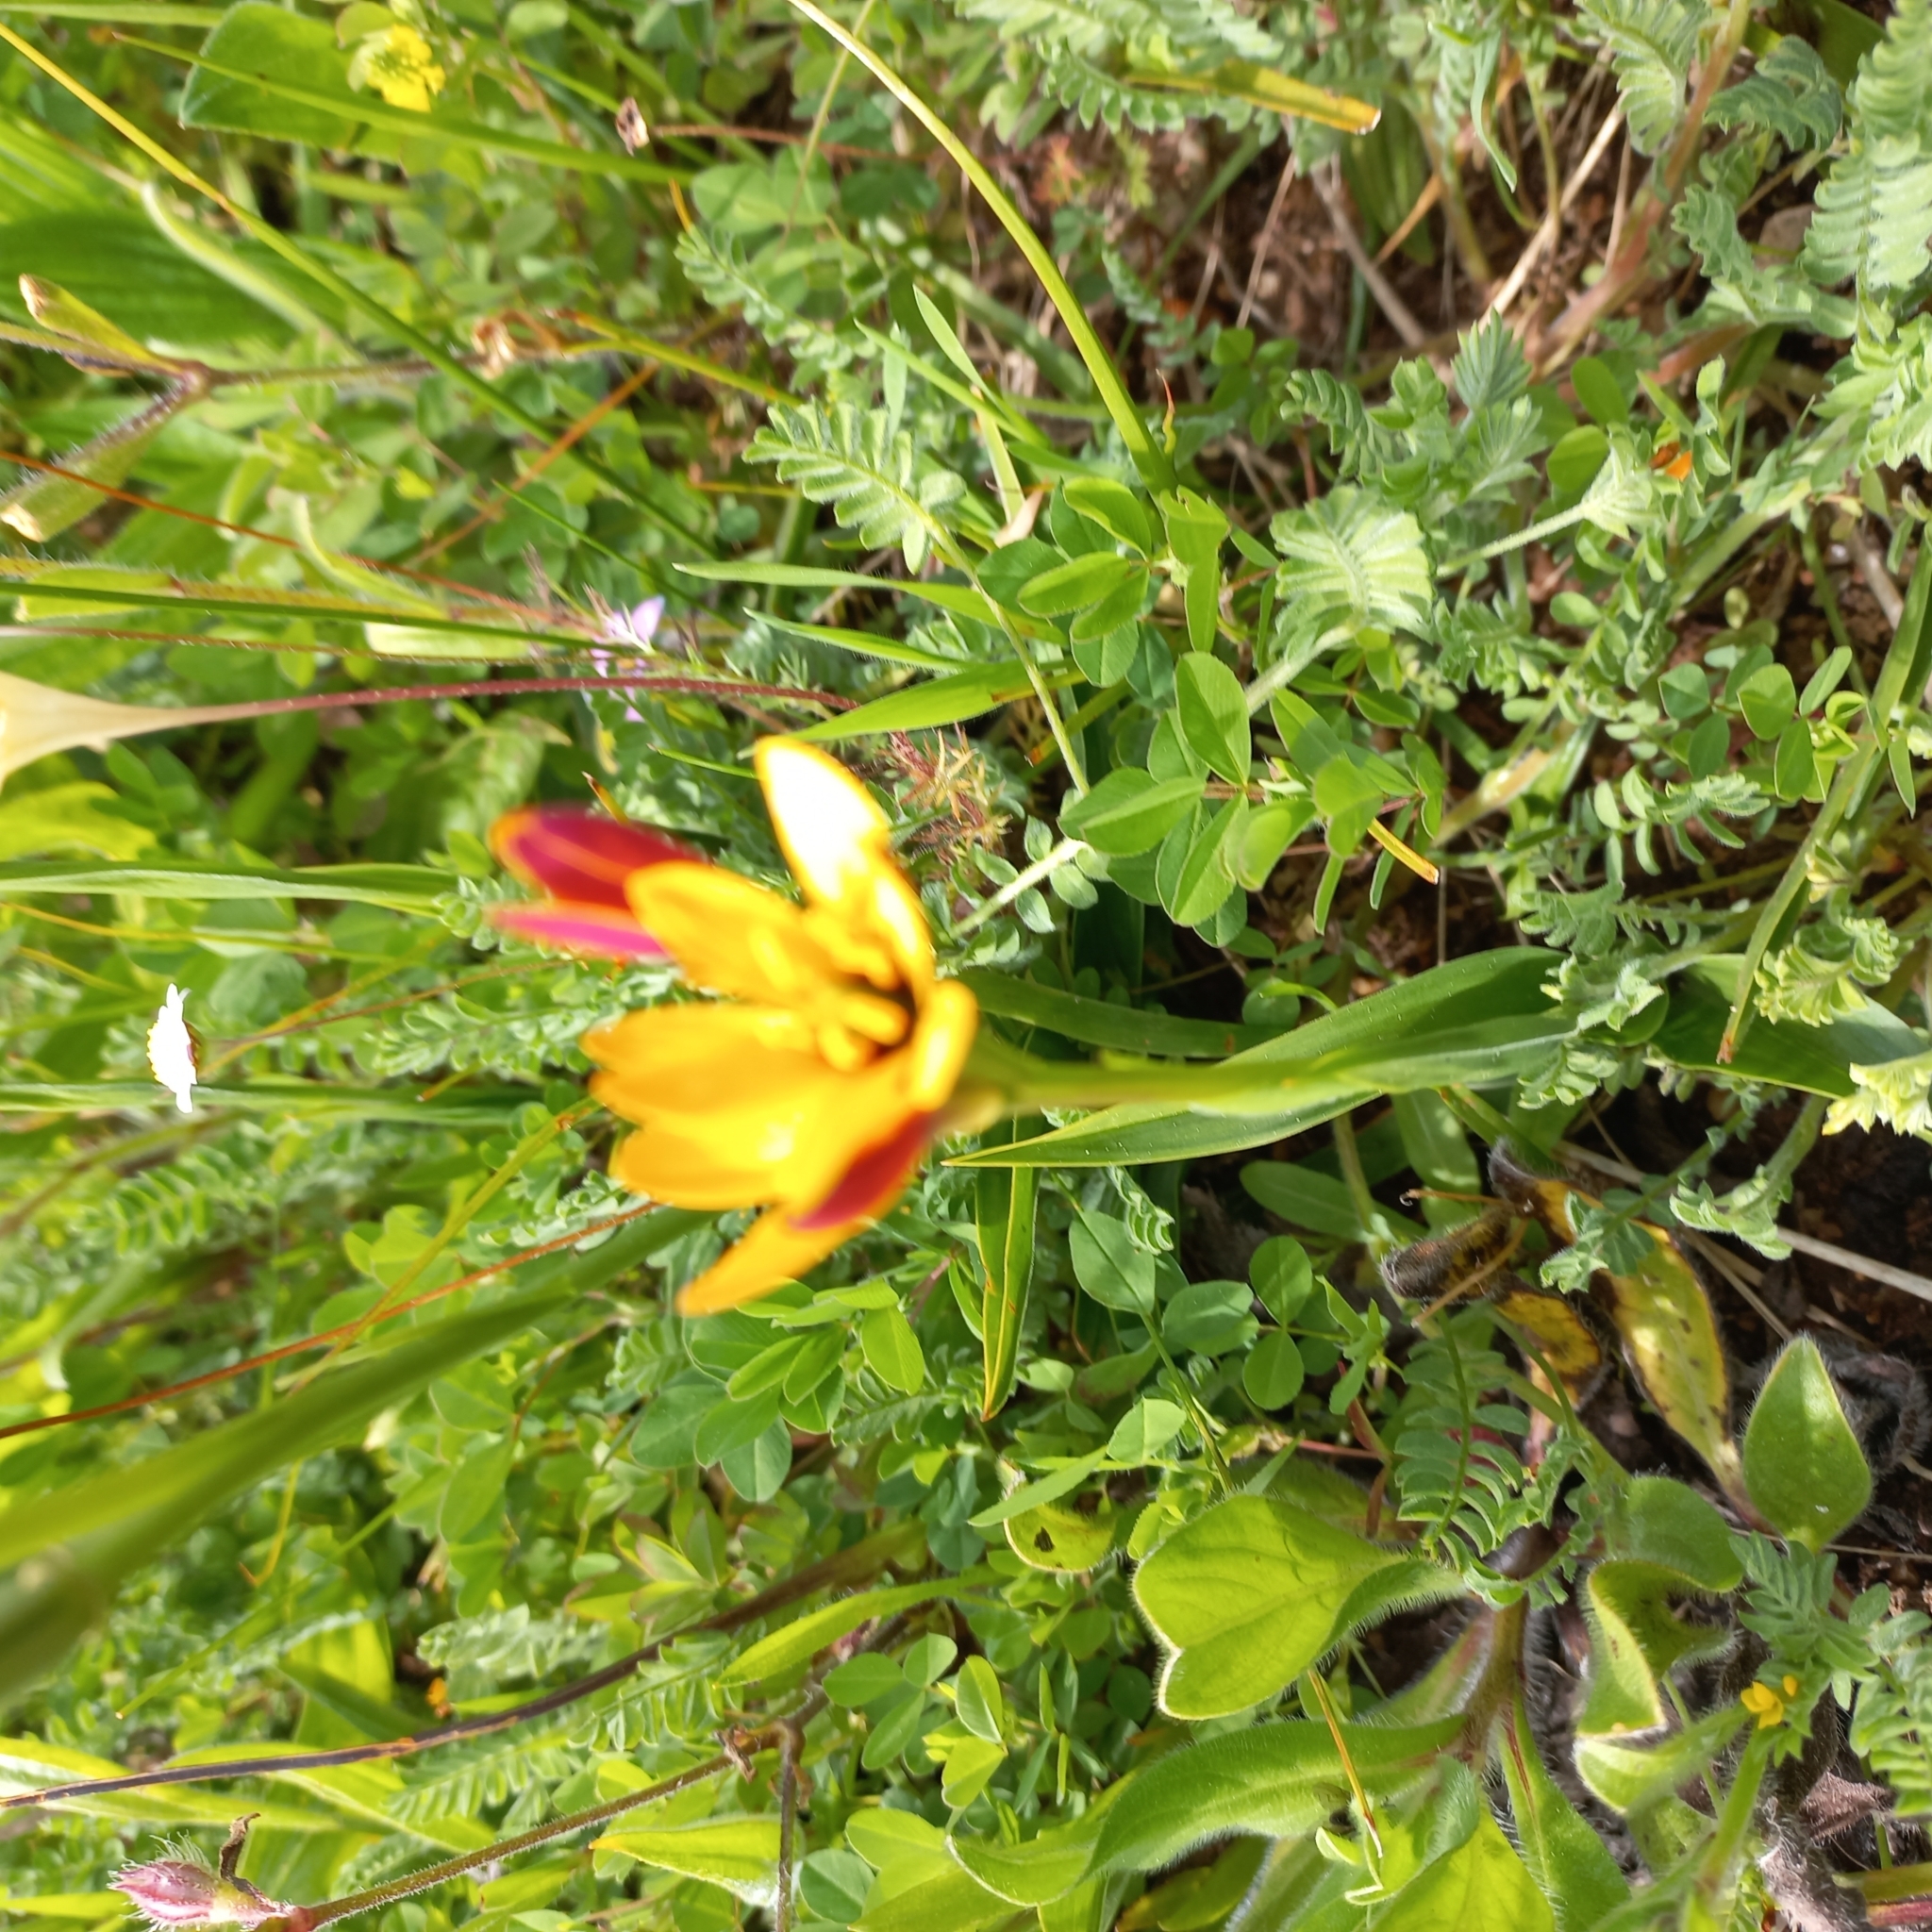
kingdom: Plantae
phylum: Tracheophyta
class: Liliopsida
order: Liliales
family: Colchicaceae
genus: Baeometra
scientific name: Baeometra uniflora
